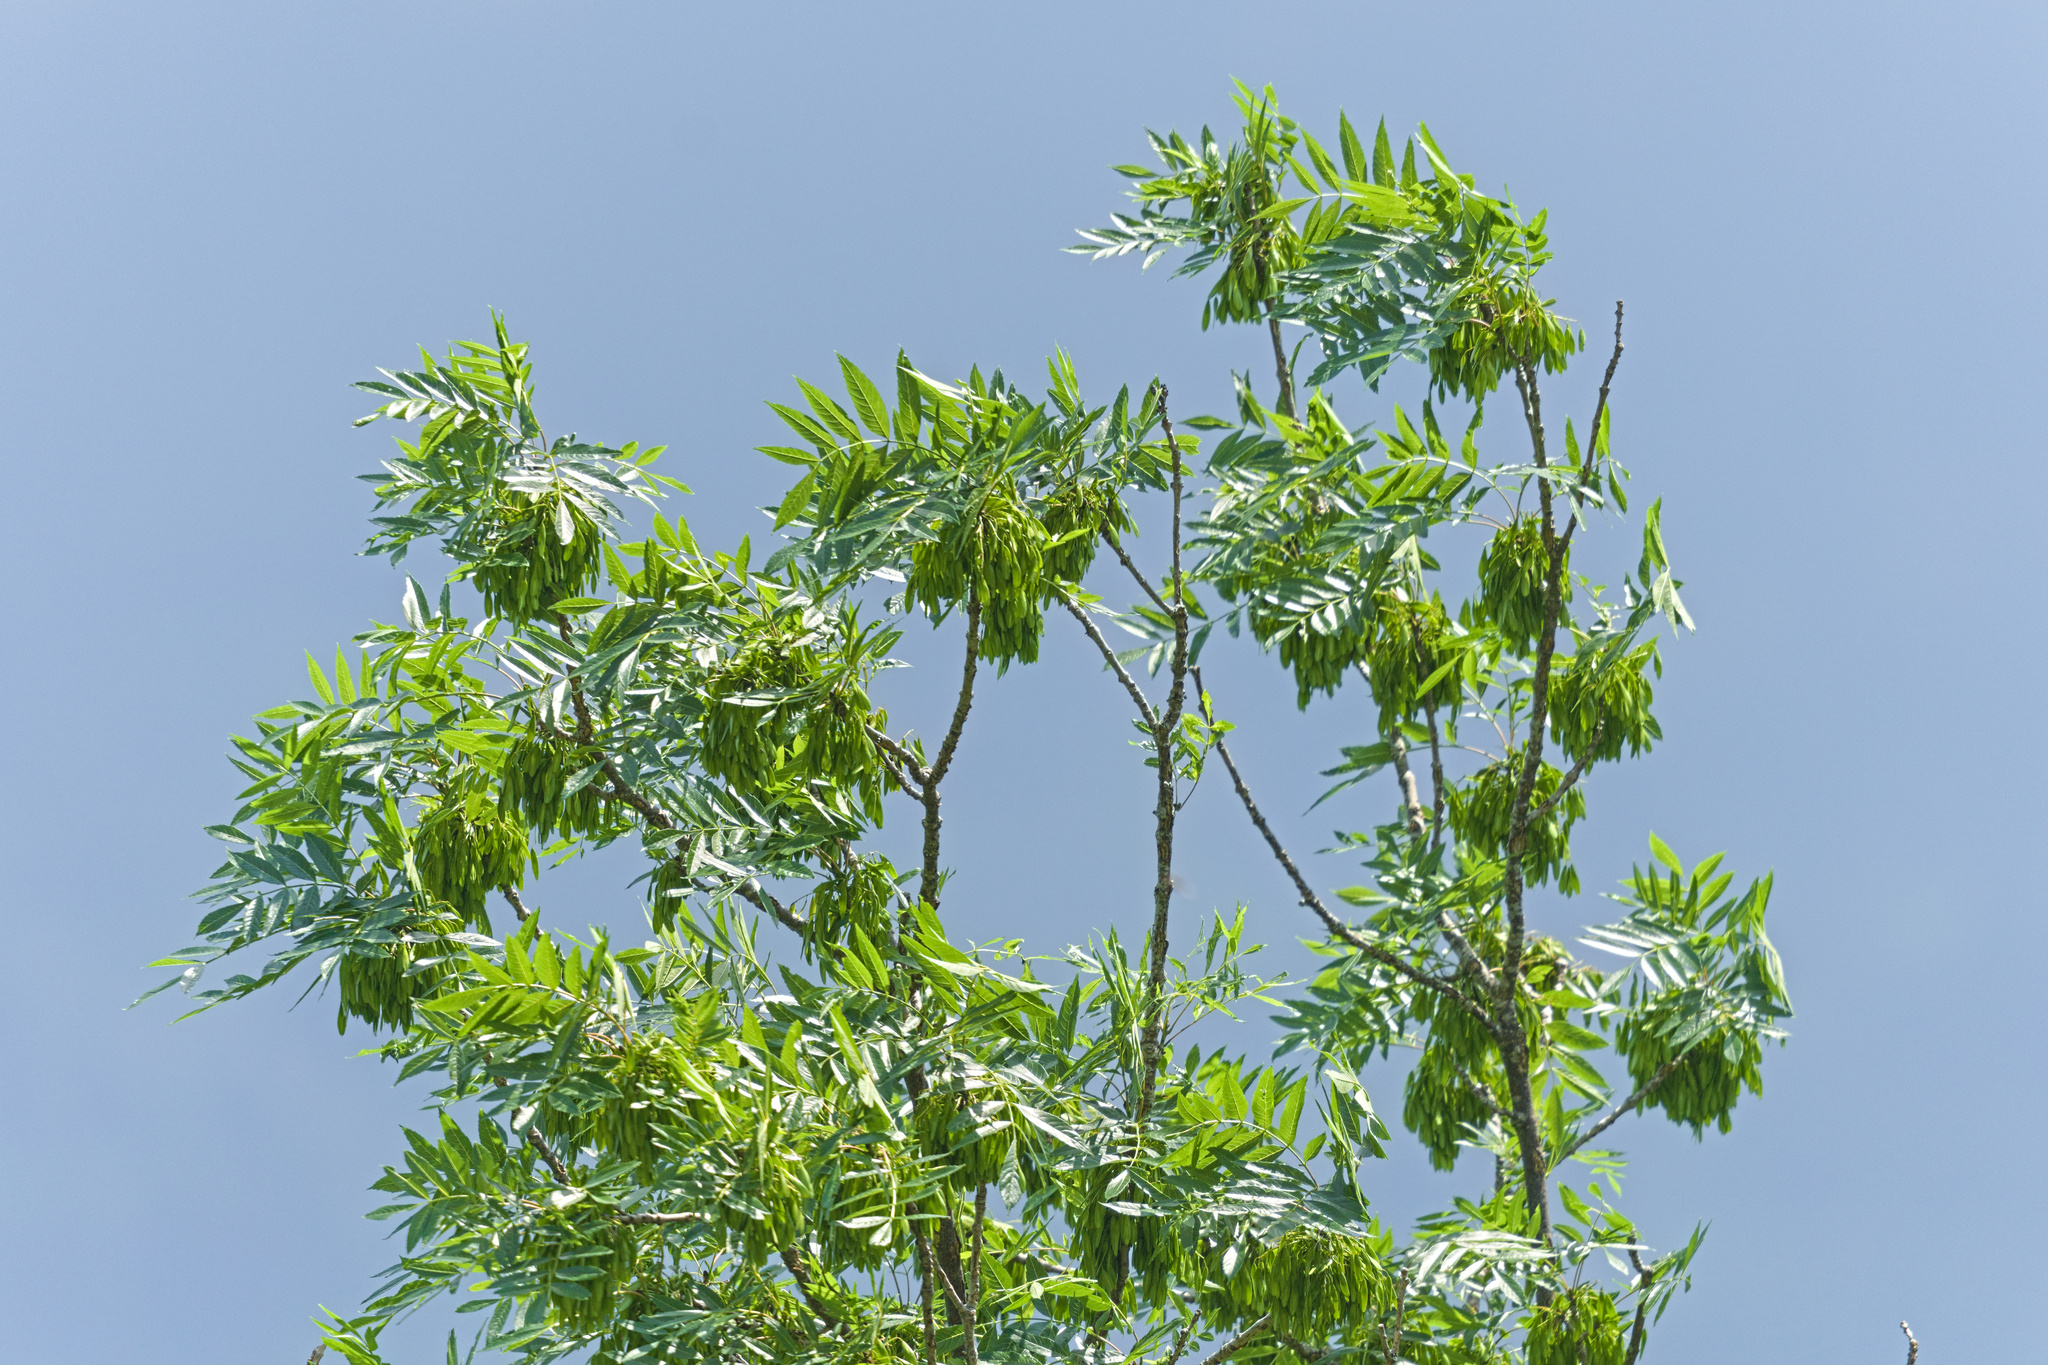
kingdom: Plantae
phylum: Tracheophyta
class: Magnoliopsida
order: Lamiales
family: Oleaceae
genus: Fraxinus
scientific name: Fraxinus excelsior
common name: European ash
